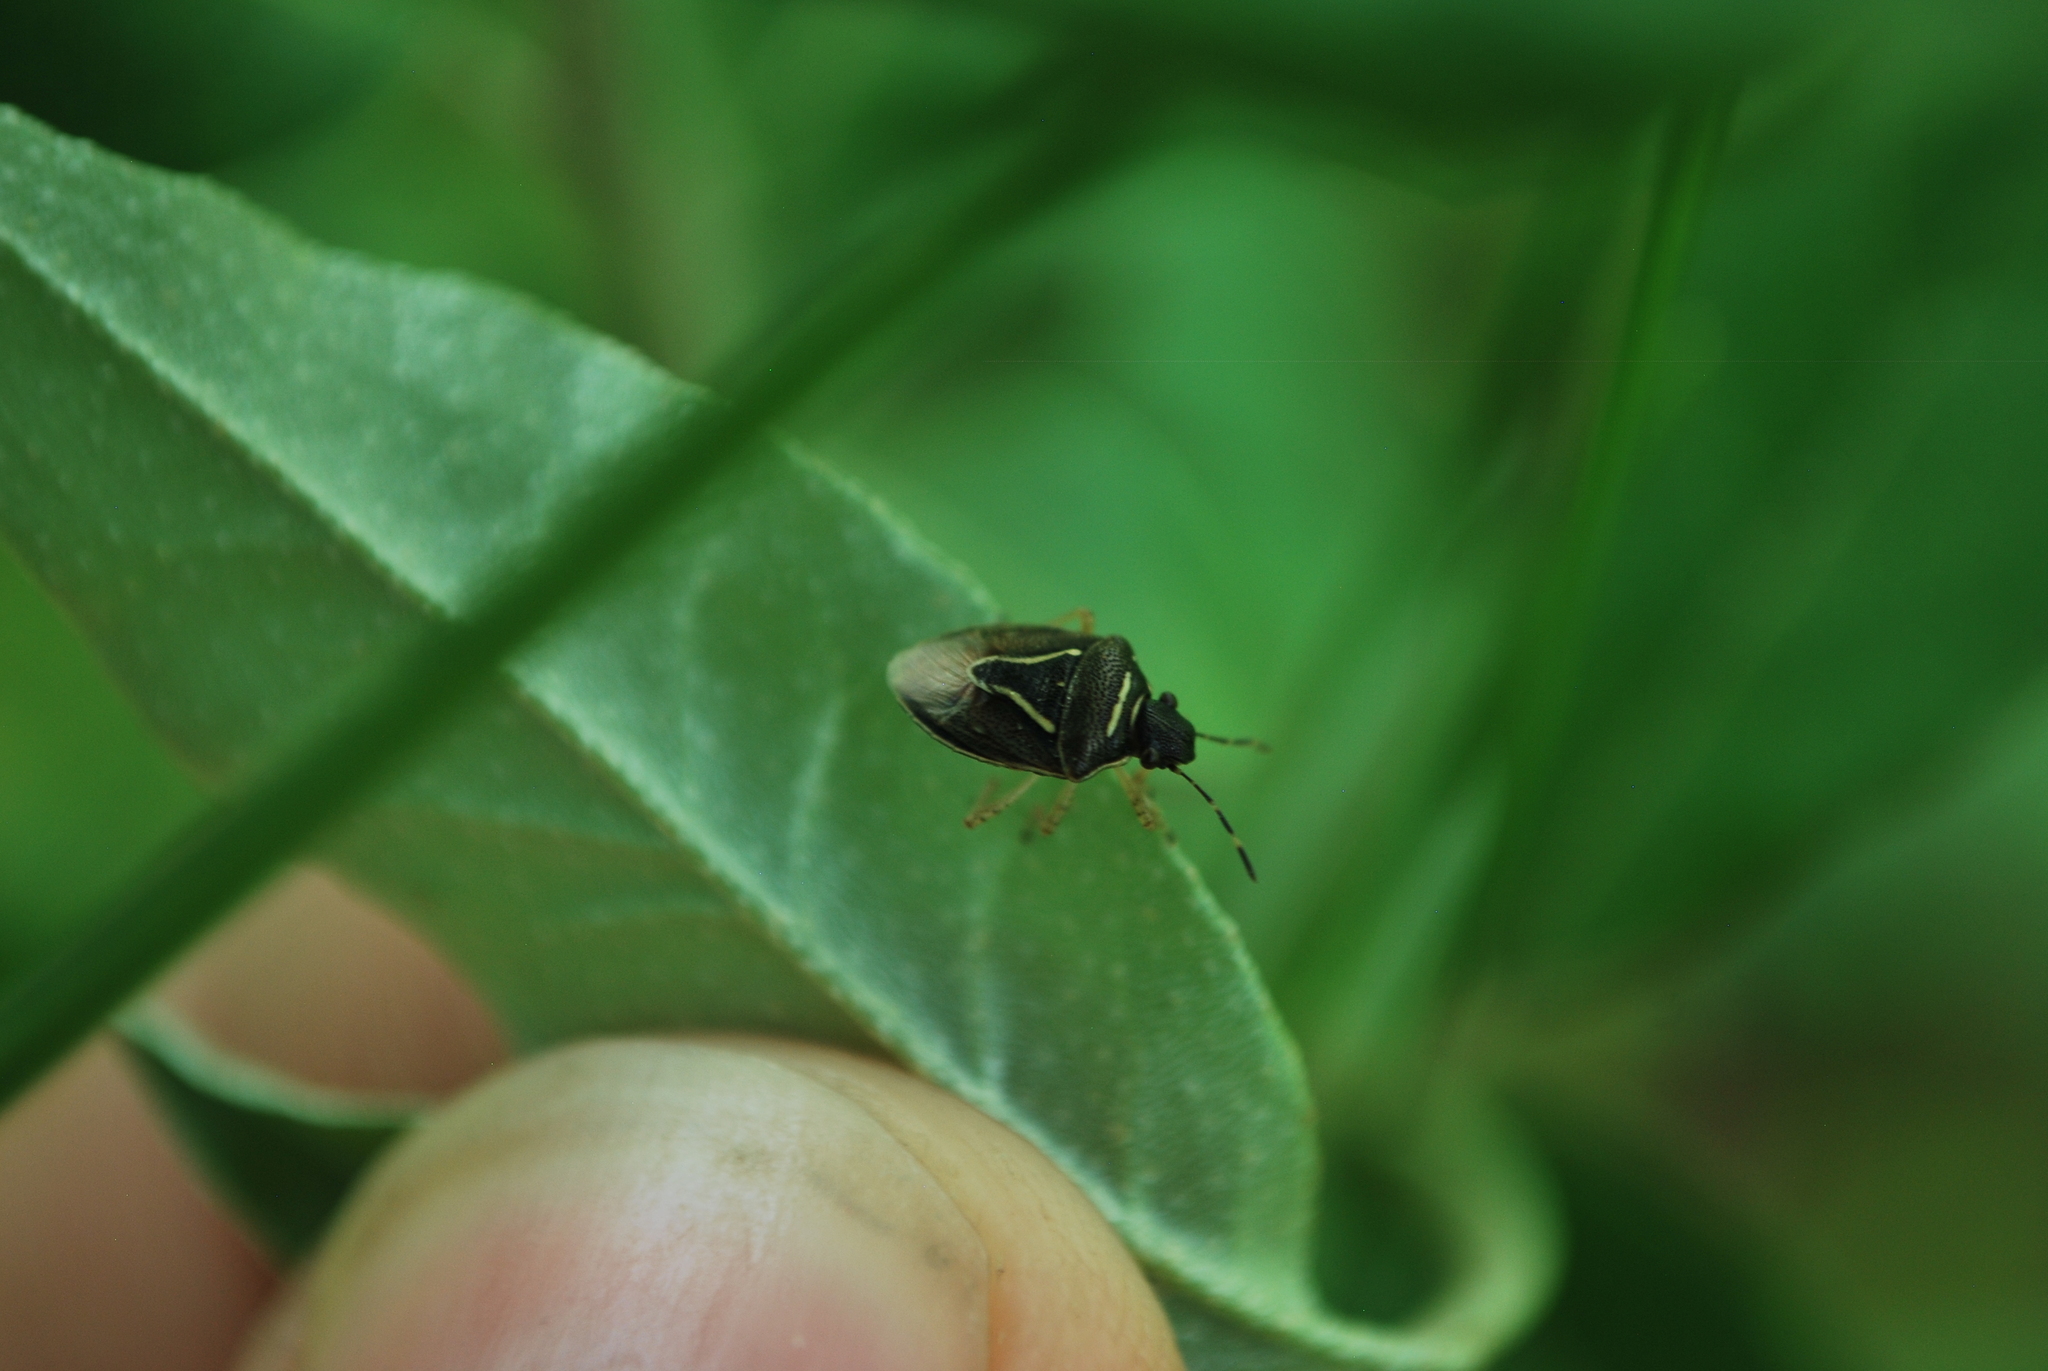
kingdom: Animalia
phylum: Arthropoda
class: Insecta
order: Hemiptera
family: Pentatomidae
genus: Mormidea
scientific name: Mormidea lugens
